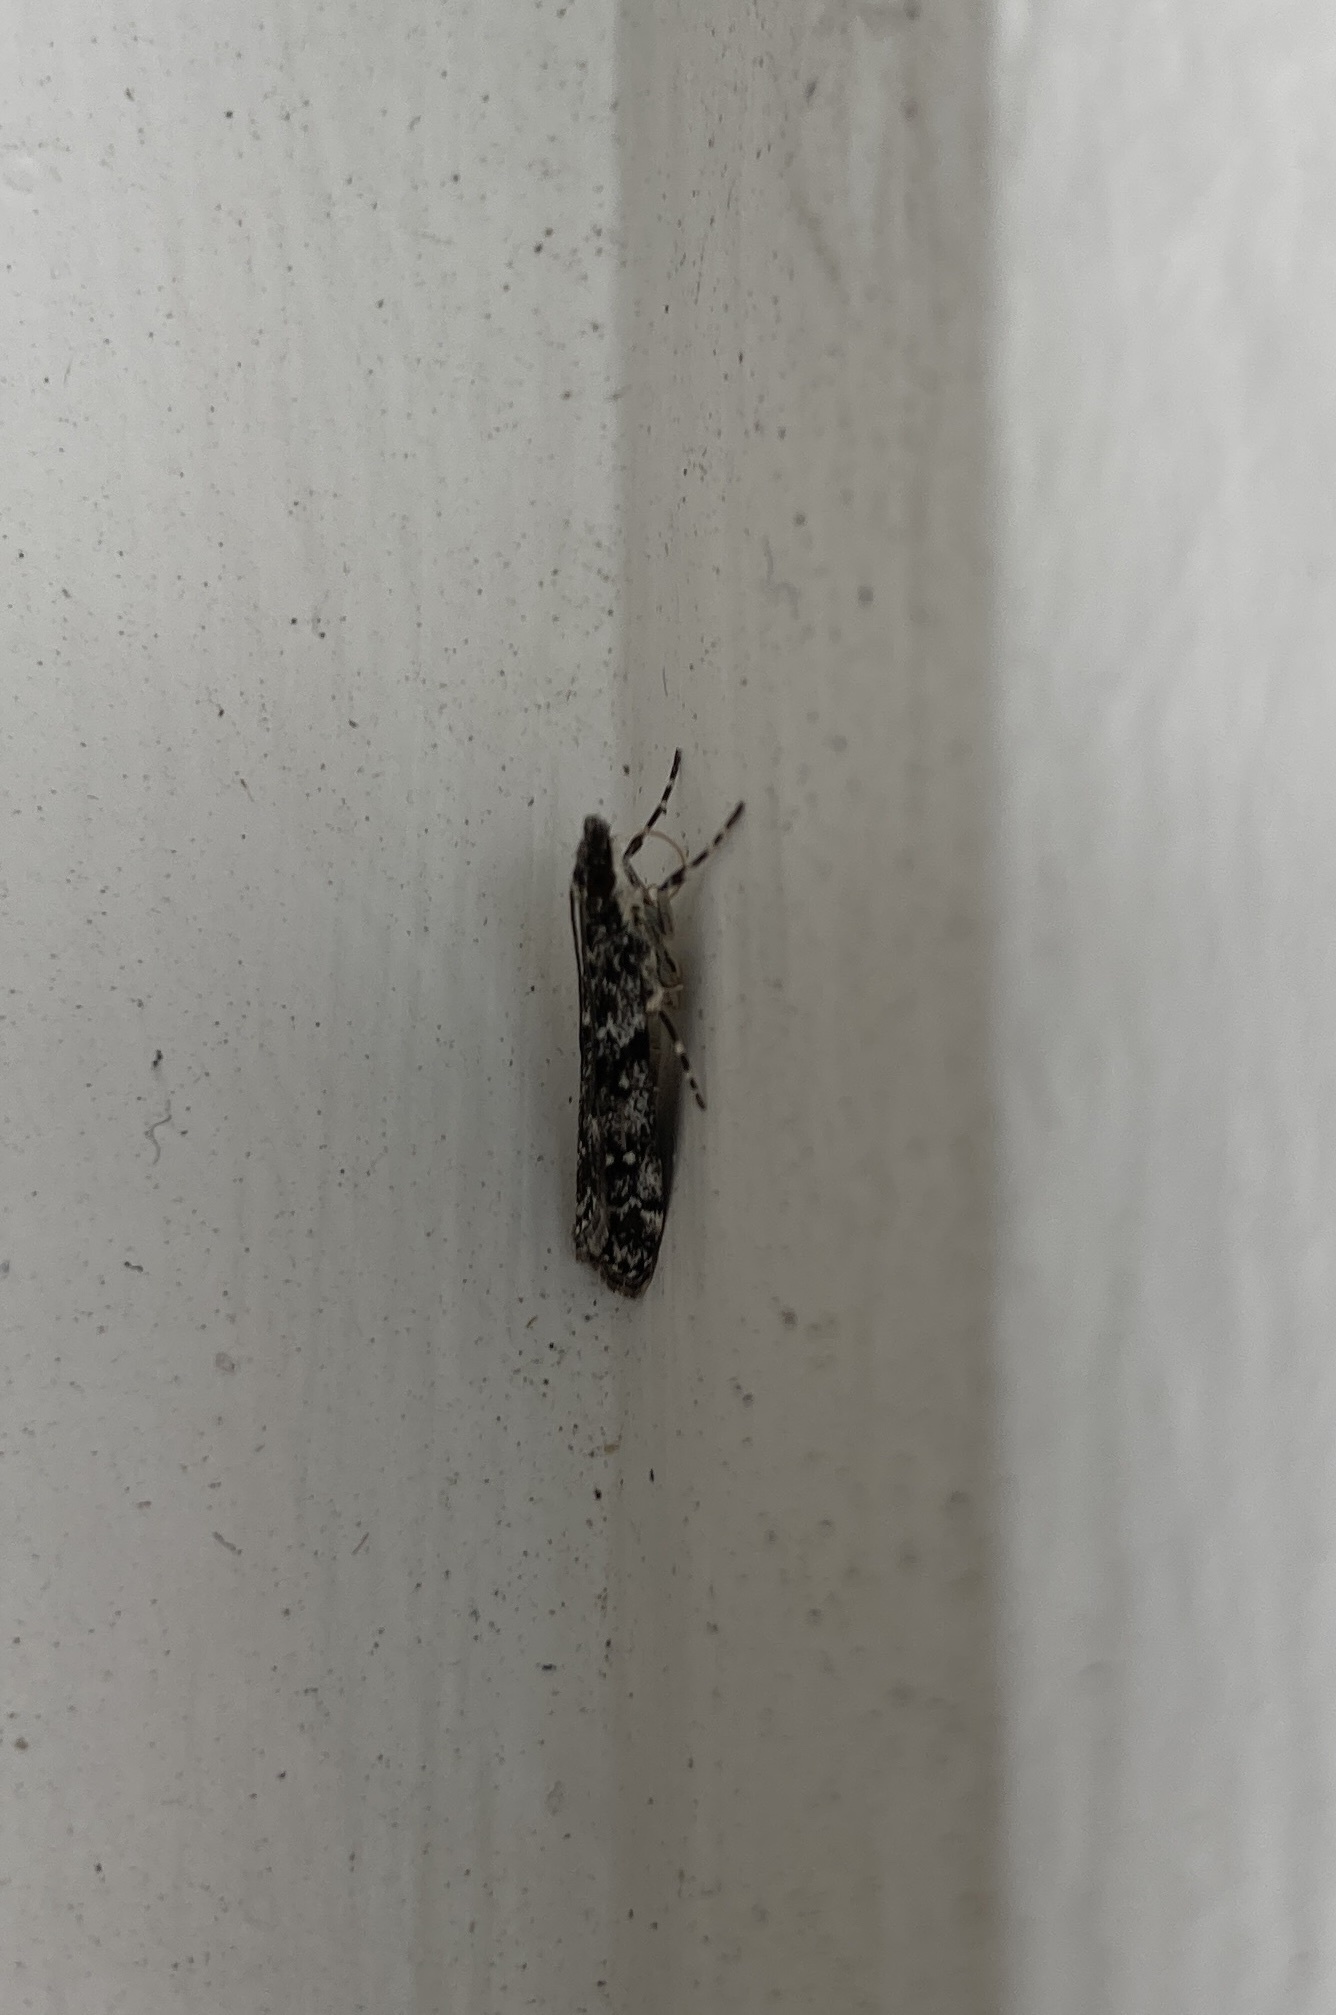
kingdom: Animalia
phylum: Arthropoda
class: Insecta
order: Lepidoptera
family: Crambidae
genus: Eudonia
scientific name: Eudonia philerga
